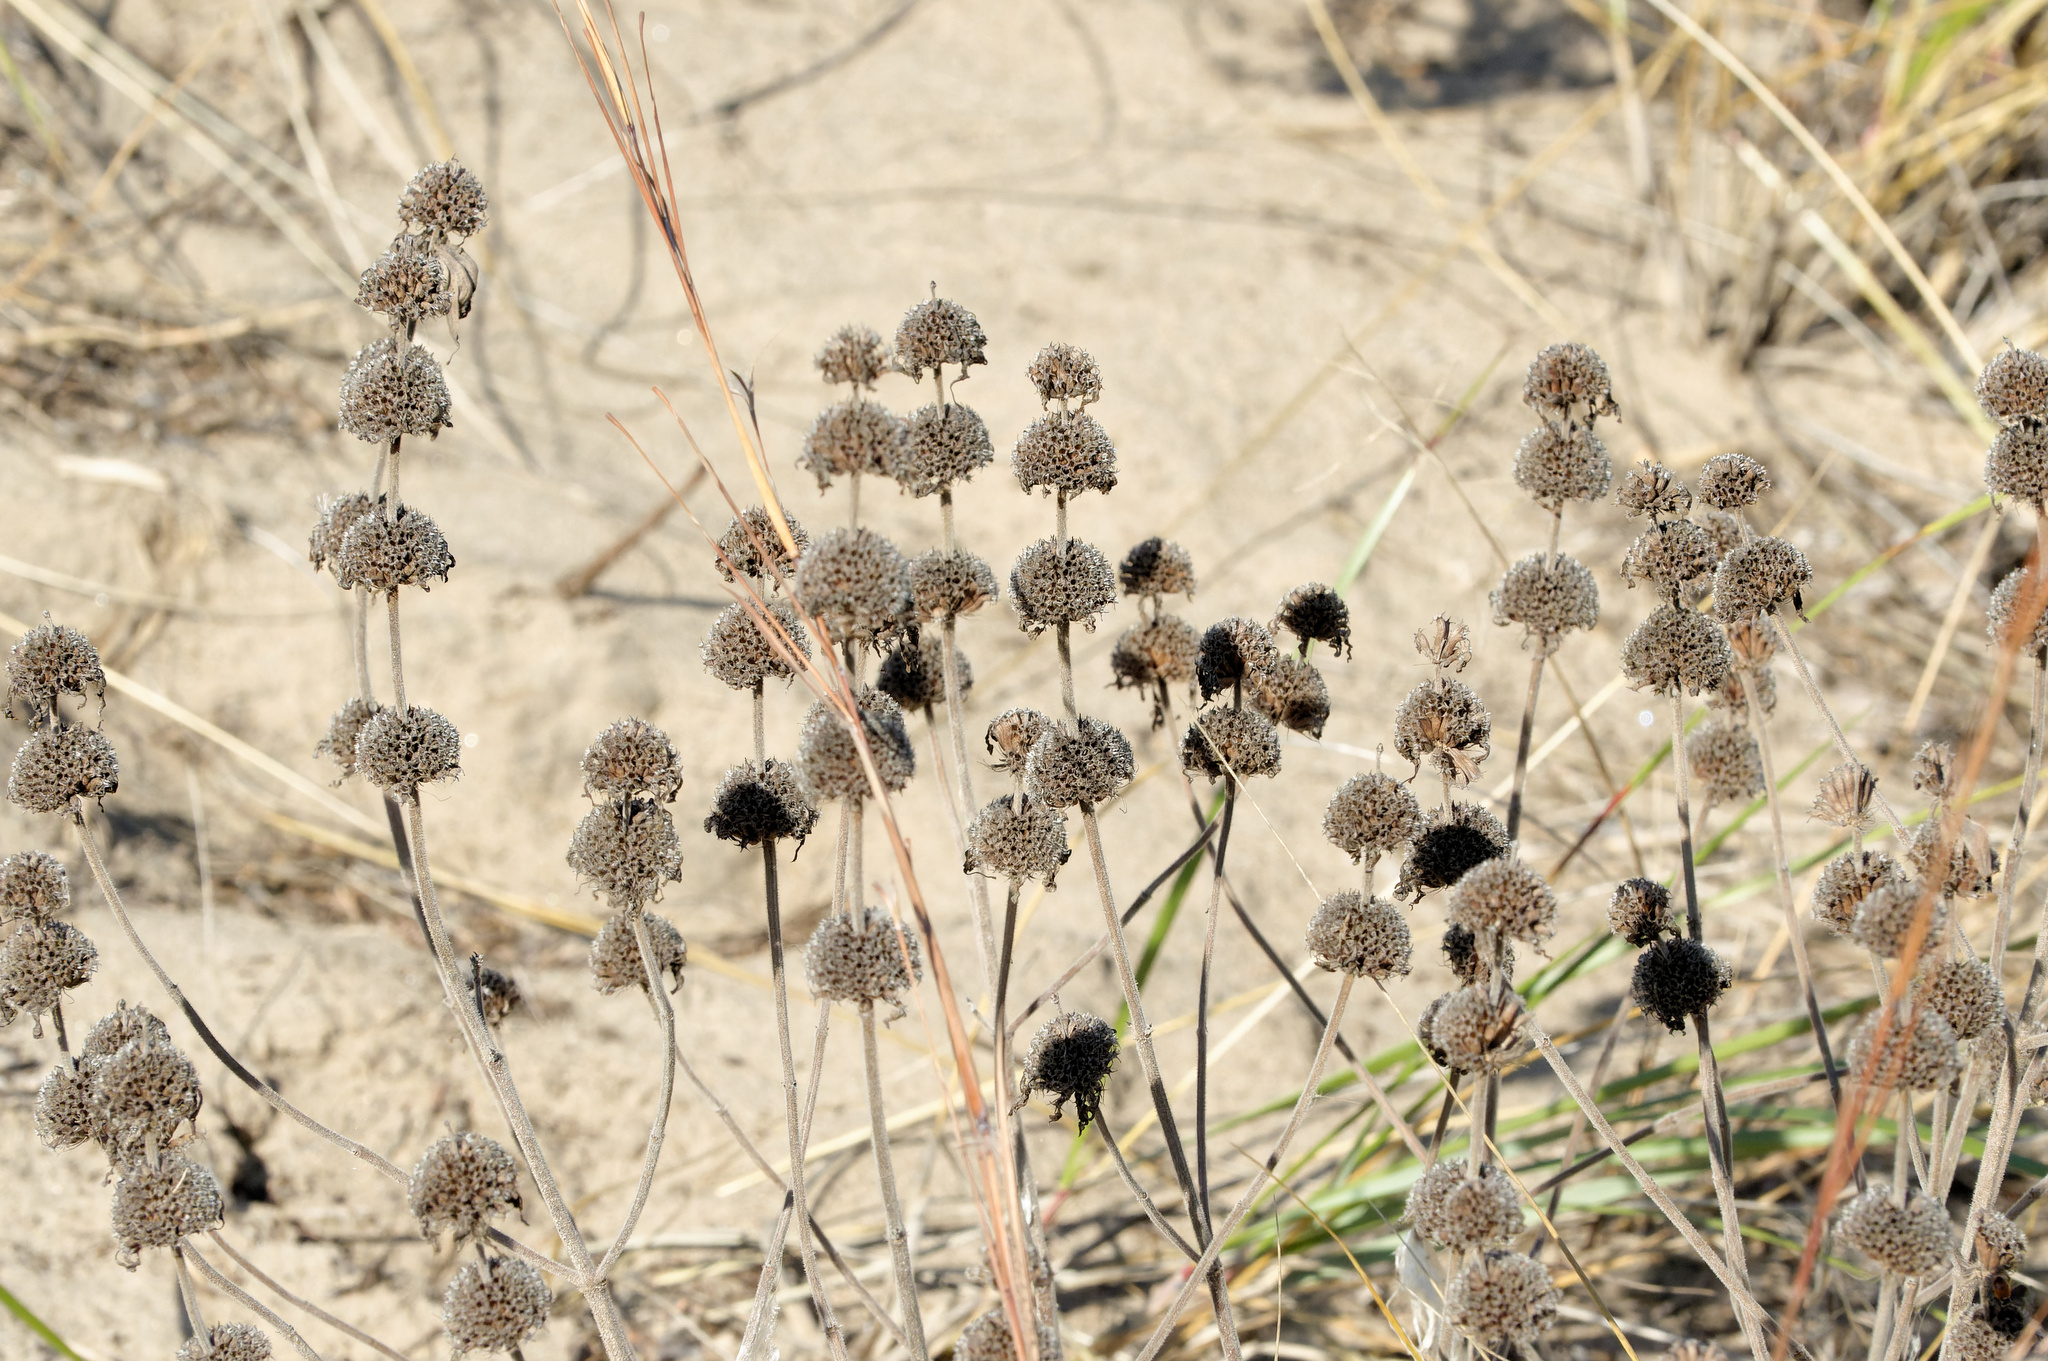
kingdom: Plantae
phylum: Tracheophyta
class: Magnoliopsida
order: Lamiales
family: Lamiaceae
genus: Monarda
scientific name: Monarda punctata
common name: Dotted monarda
